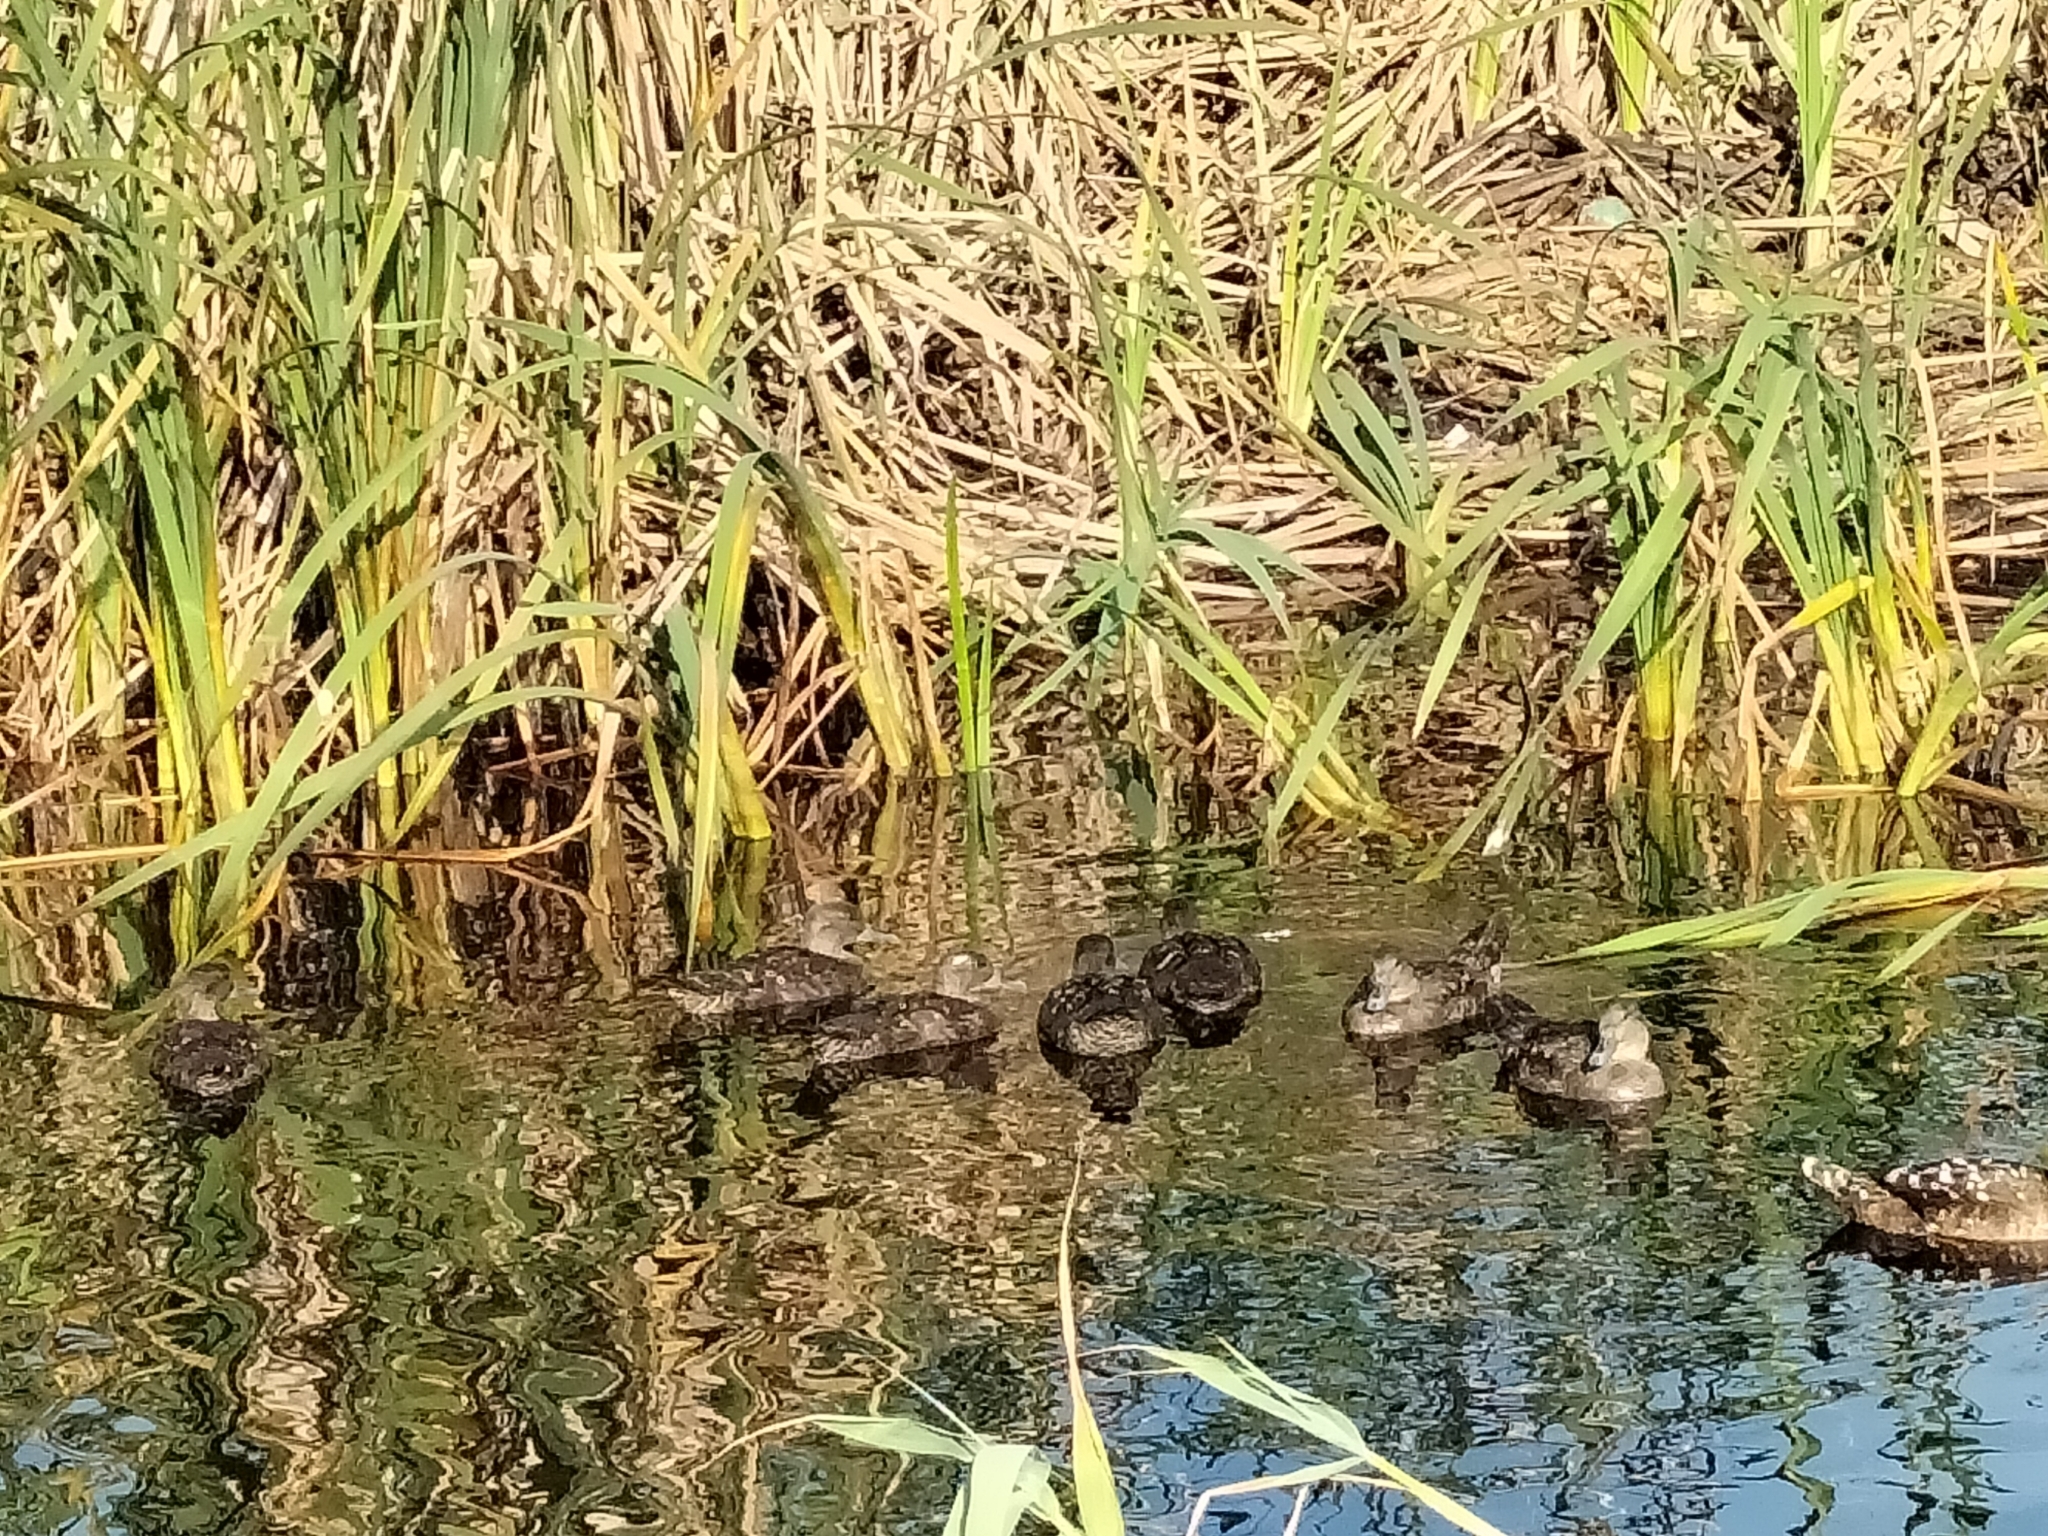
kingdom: Animalia
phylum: Chordata
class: Aves
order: Anseriformes
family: Anatidae
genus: Anas
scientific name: Anas sparsa
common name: African black duck
